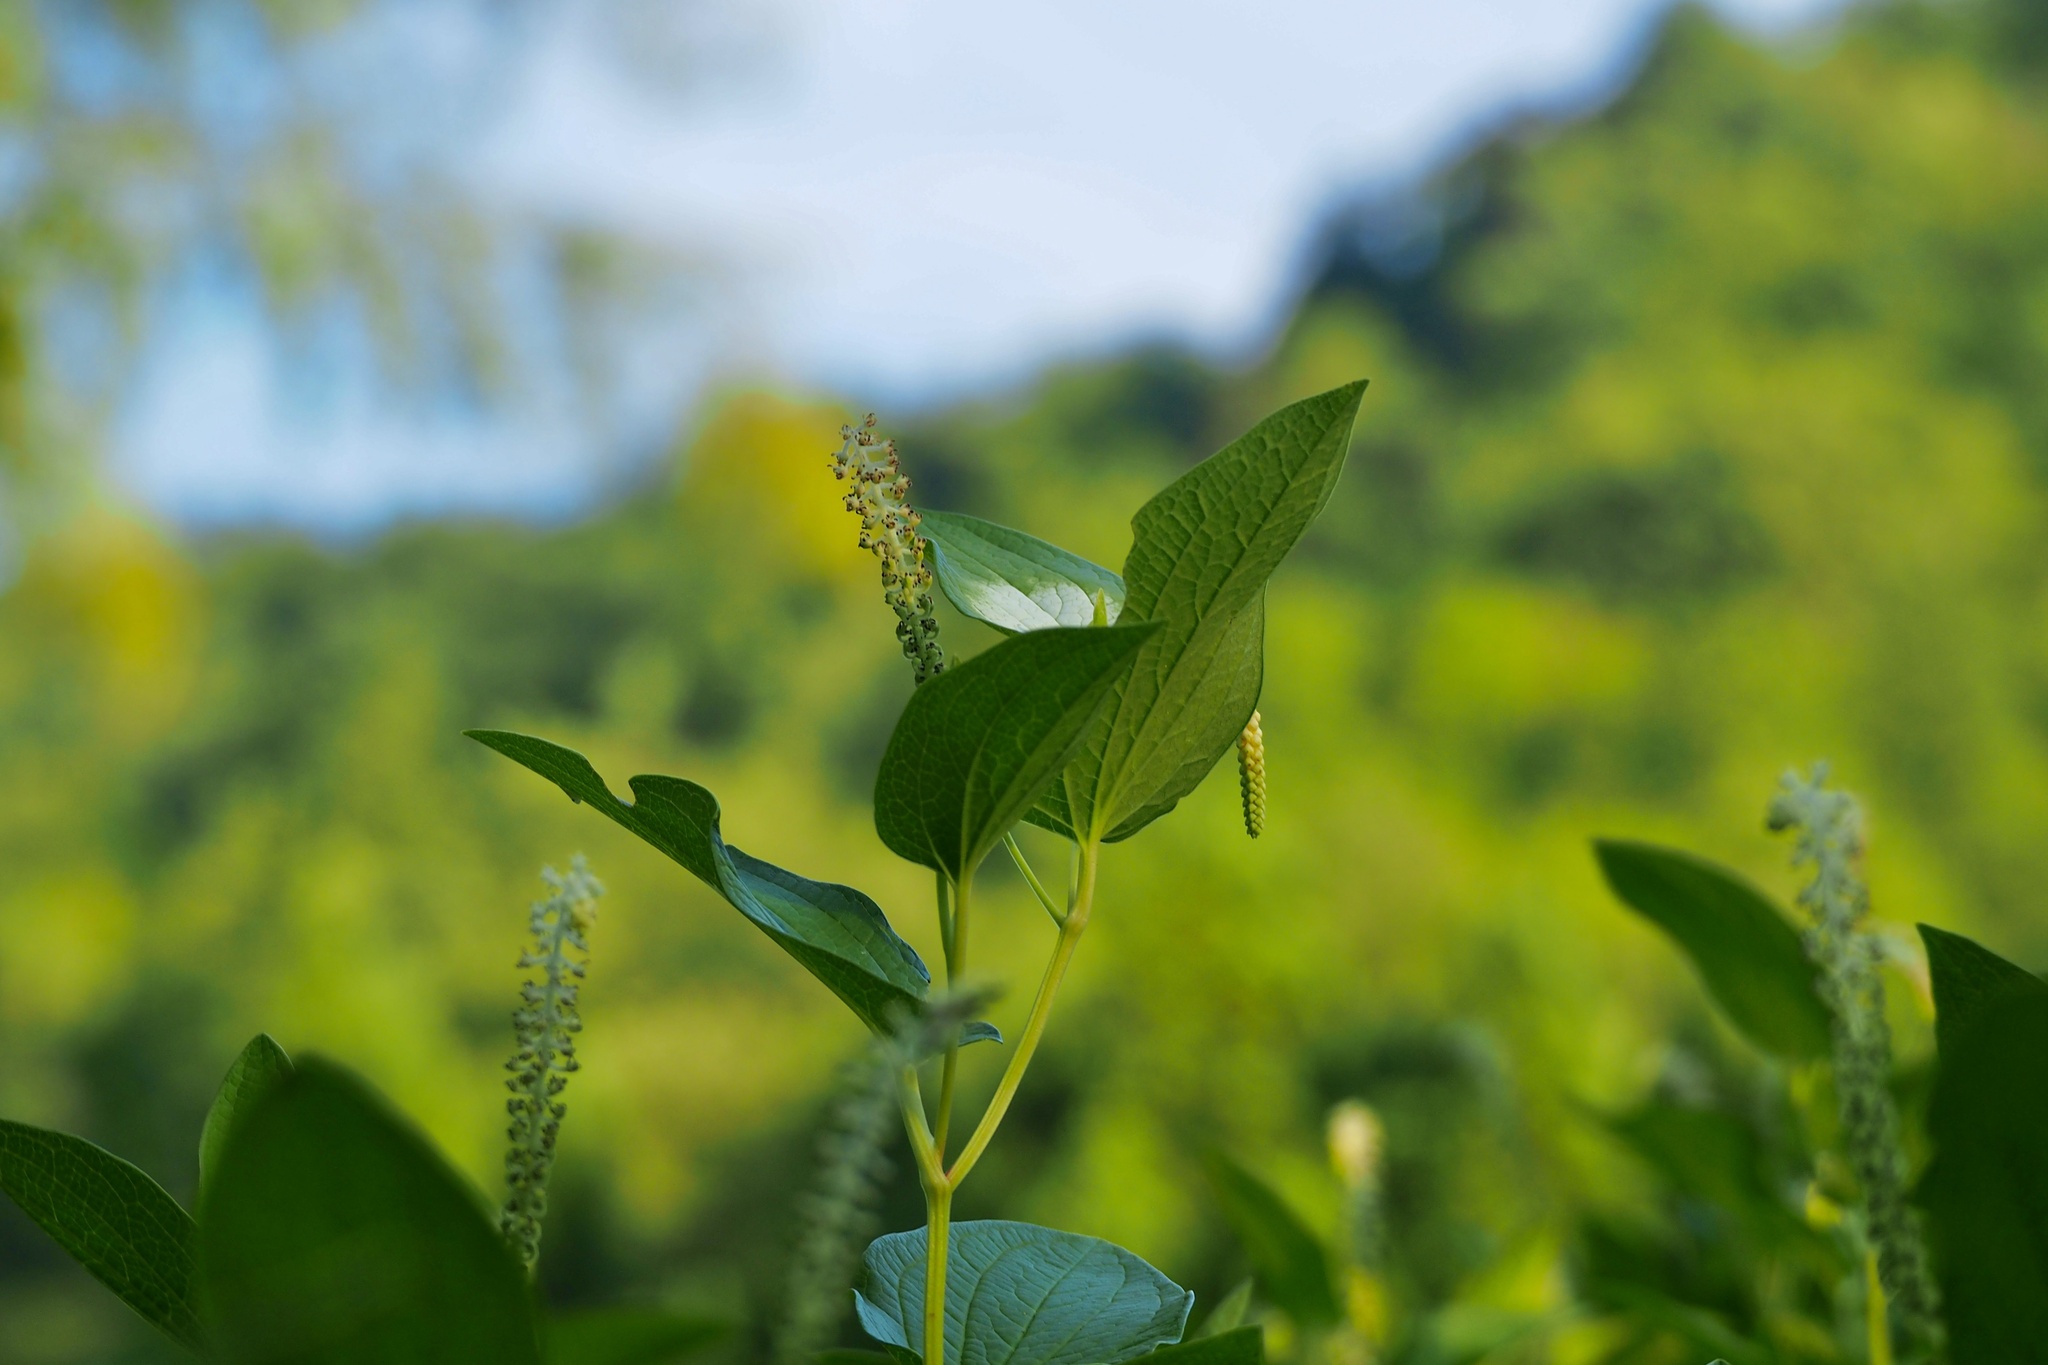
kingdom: Plantae
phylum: Tracheophyta
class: Magnoliopsida
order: Piperales
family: Saururaceae
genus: Saururus
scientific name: Saururus chinensis
